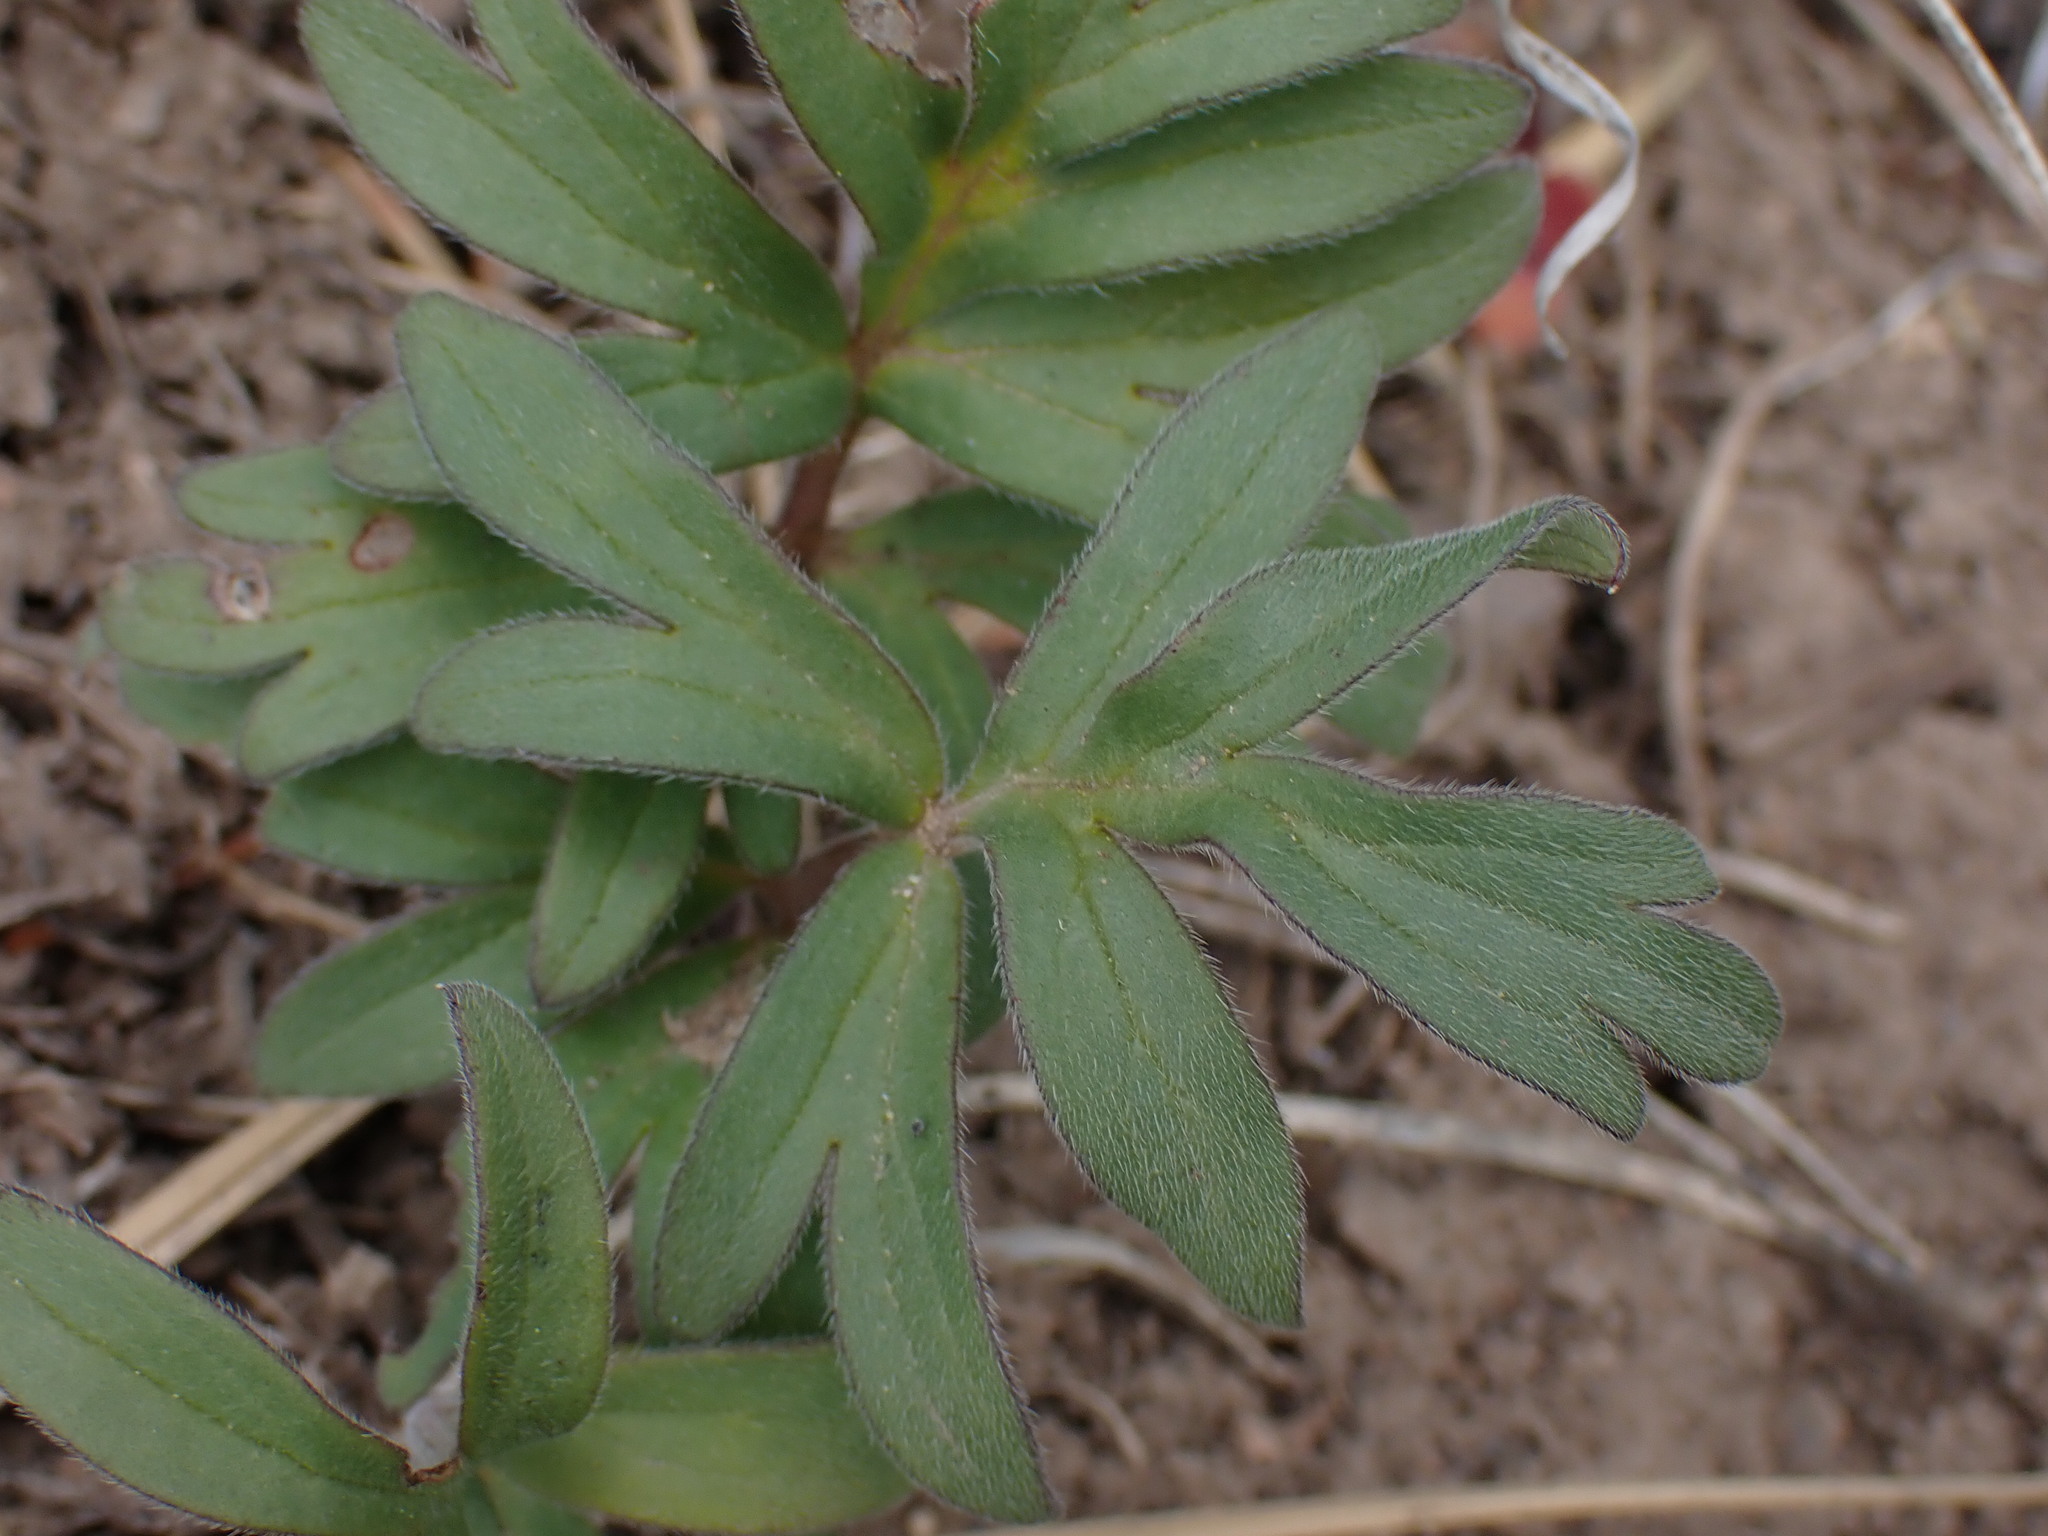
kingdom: Plantae
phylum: Tracheophyta
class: Magnoliopsida
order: Boraginales
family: Hydrophyllaceae
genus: Hydrophyllum
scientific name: Hydrophyllum capitatum
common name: Woollen-breeches
